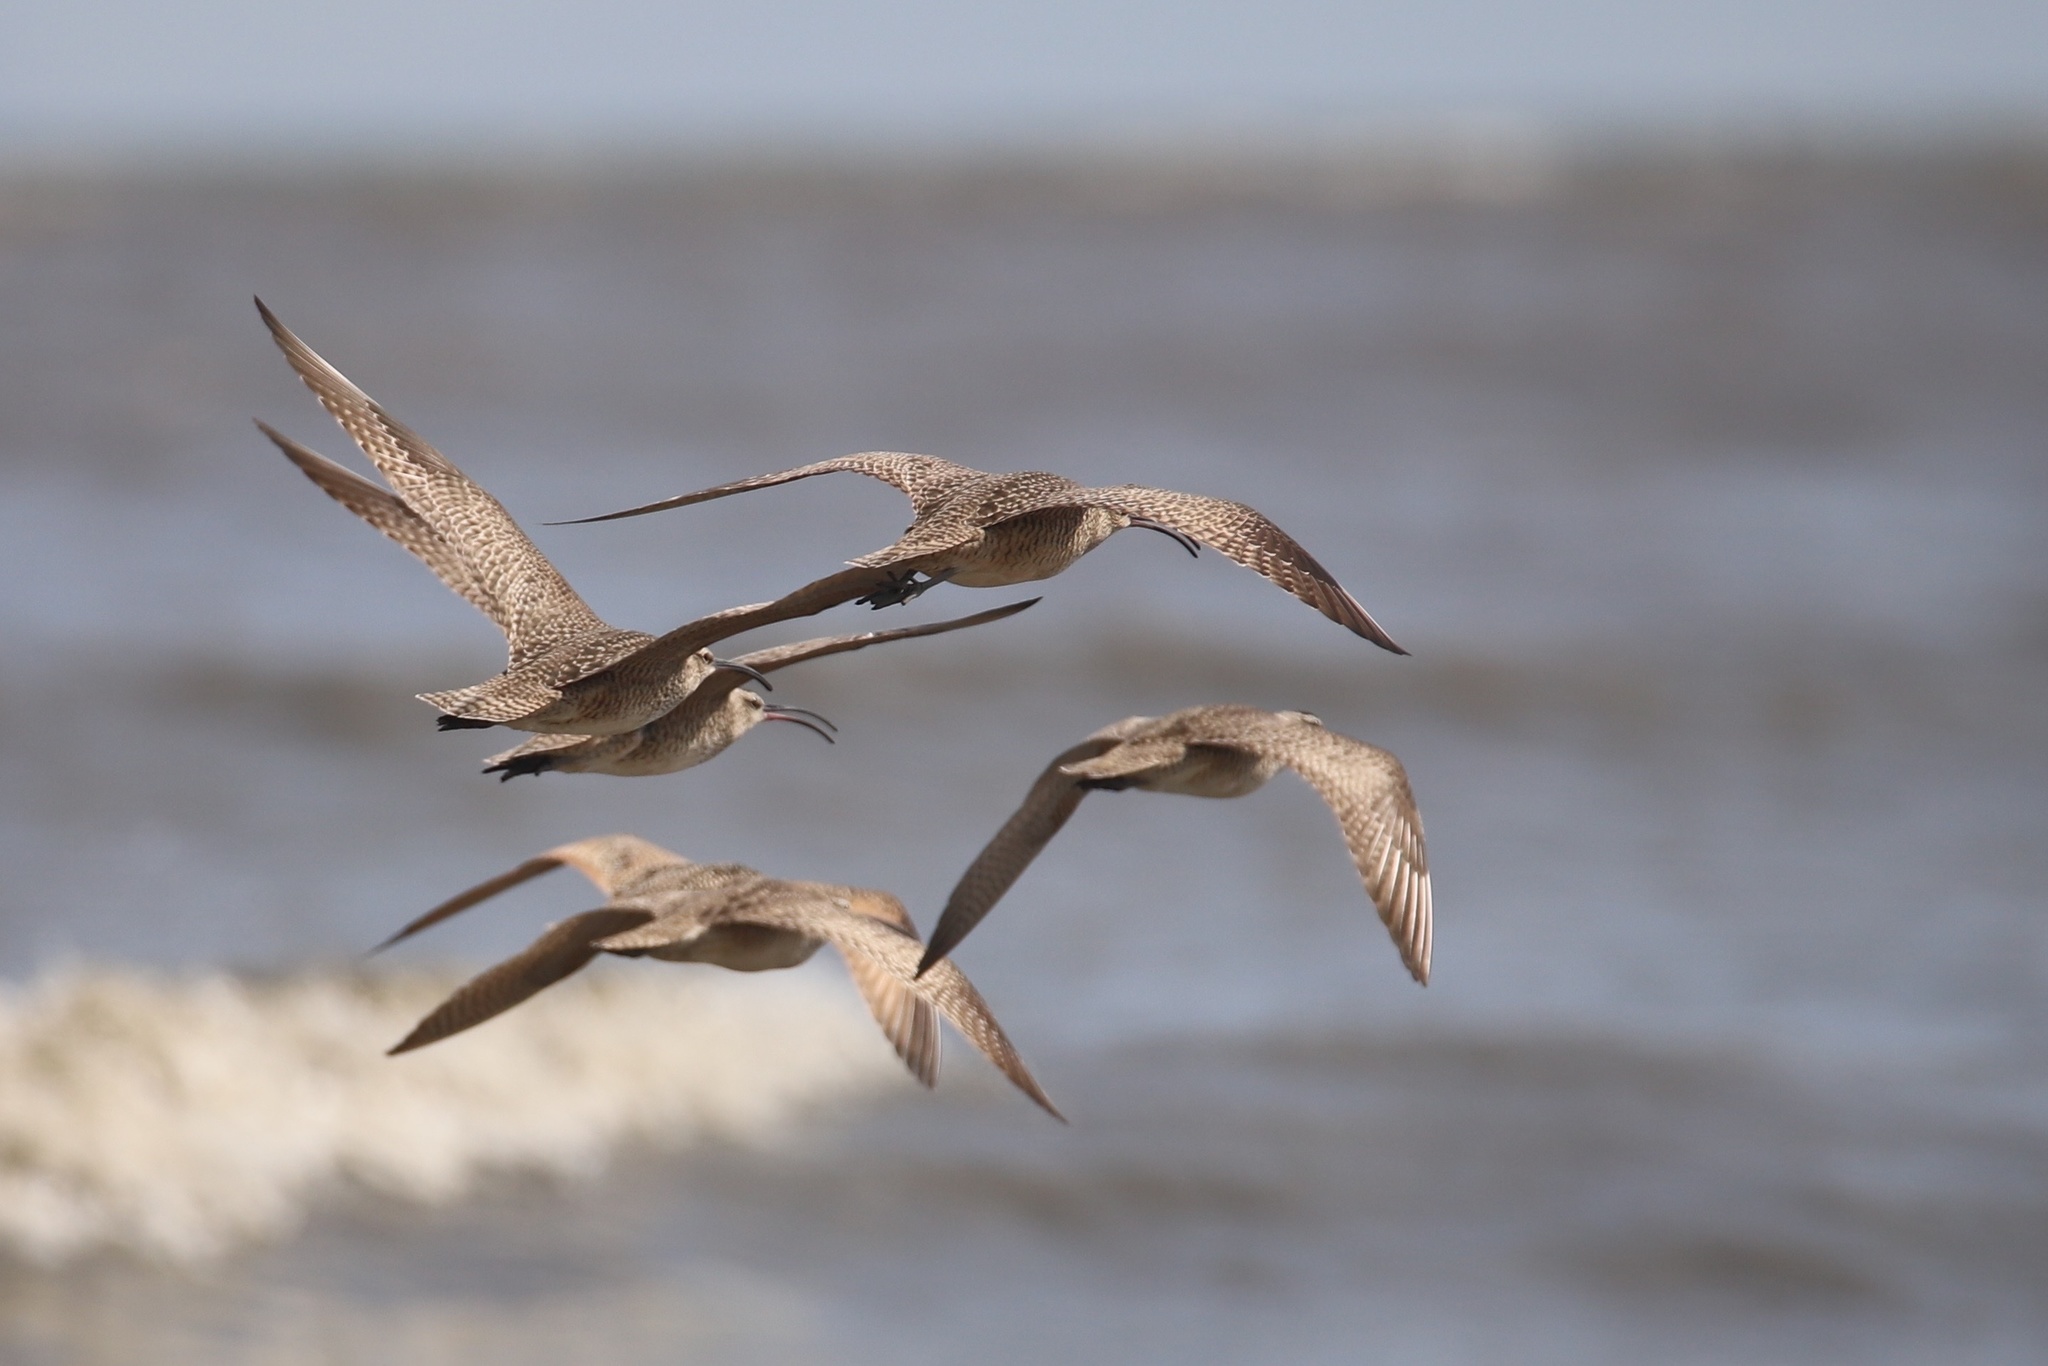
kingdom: Animalia
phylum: Chordata
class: Aves
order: Charadriiformes
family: Scolopacidae
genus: Numenius
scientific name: Numenius phaeopus
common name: Whimbrel
